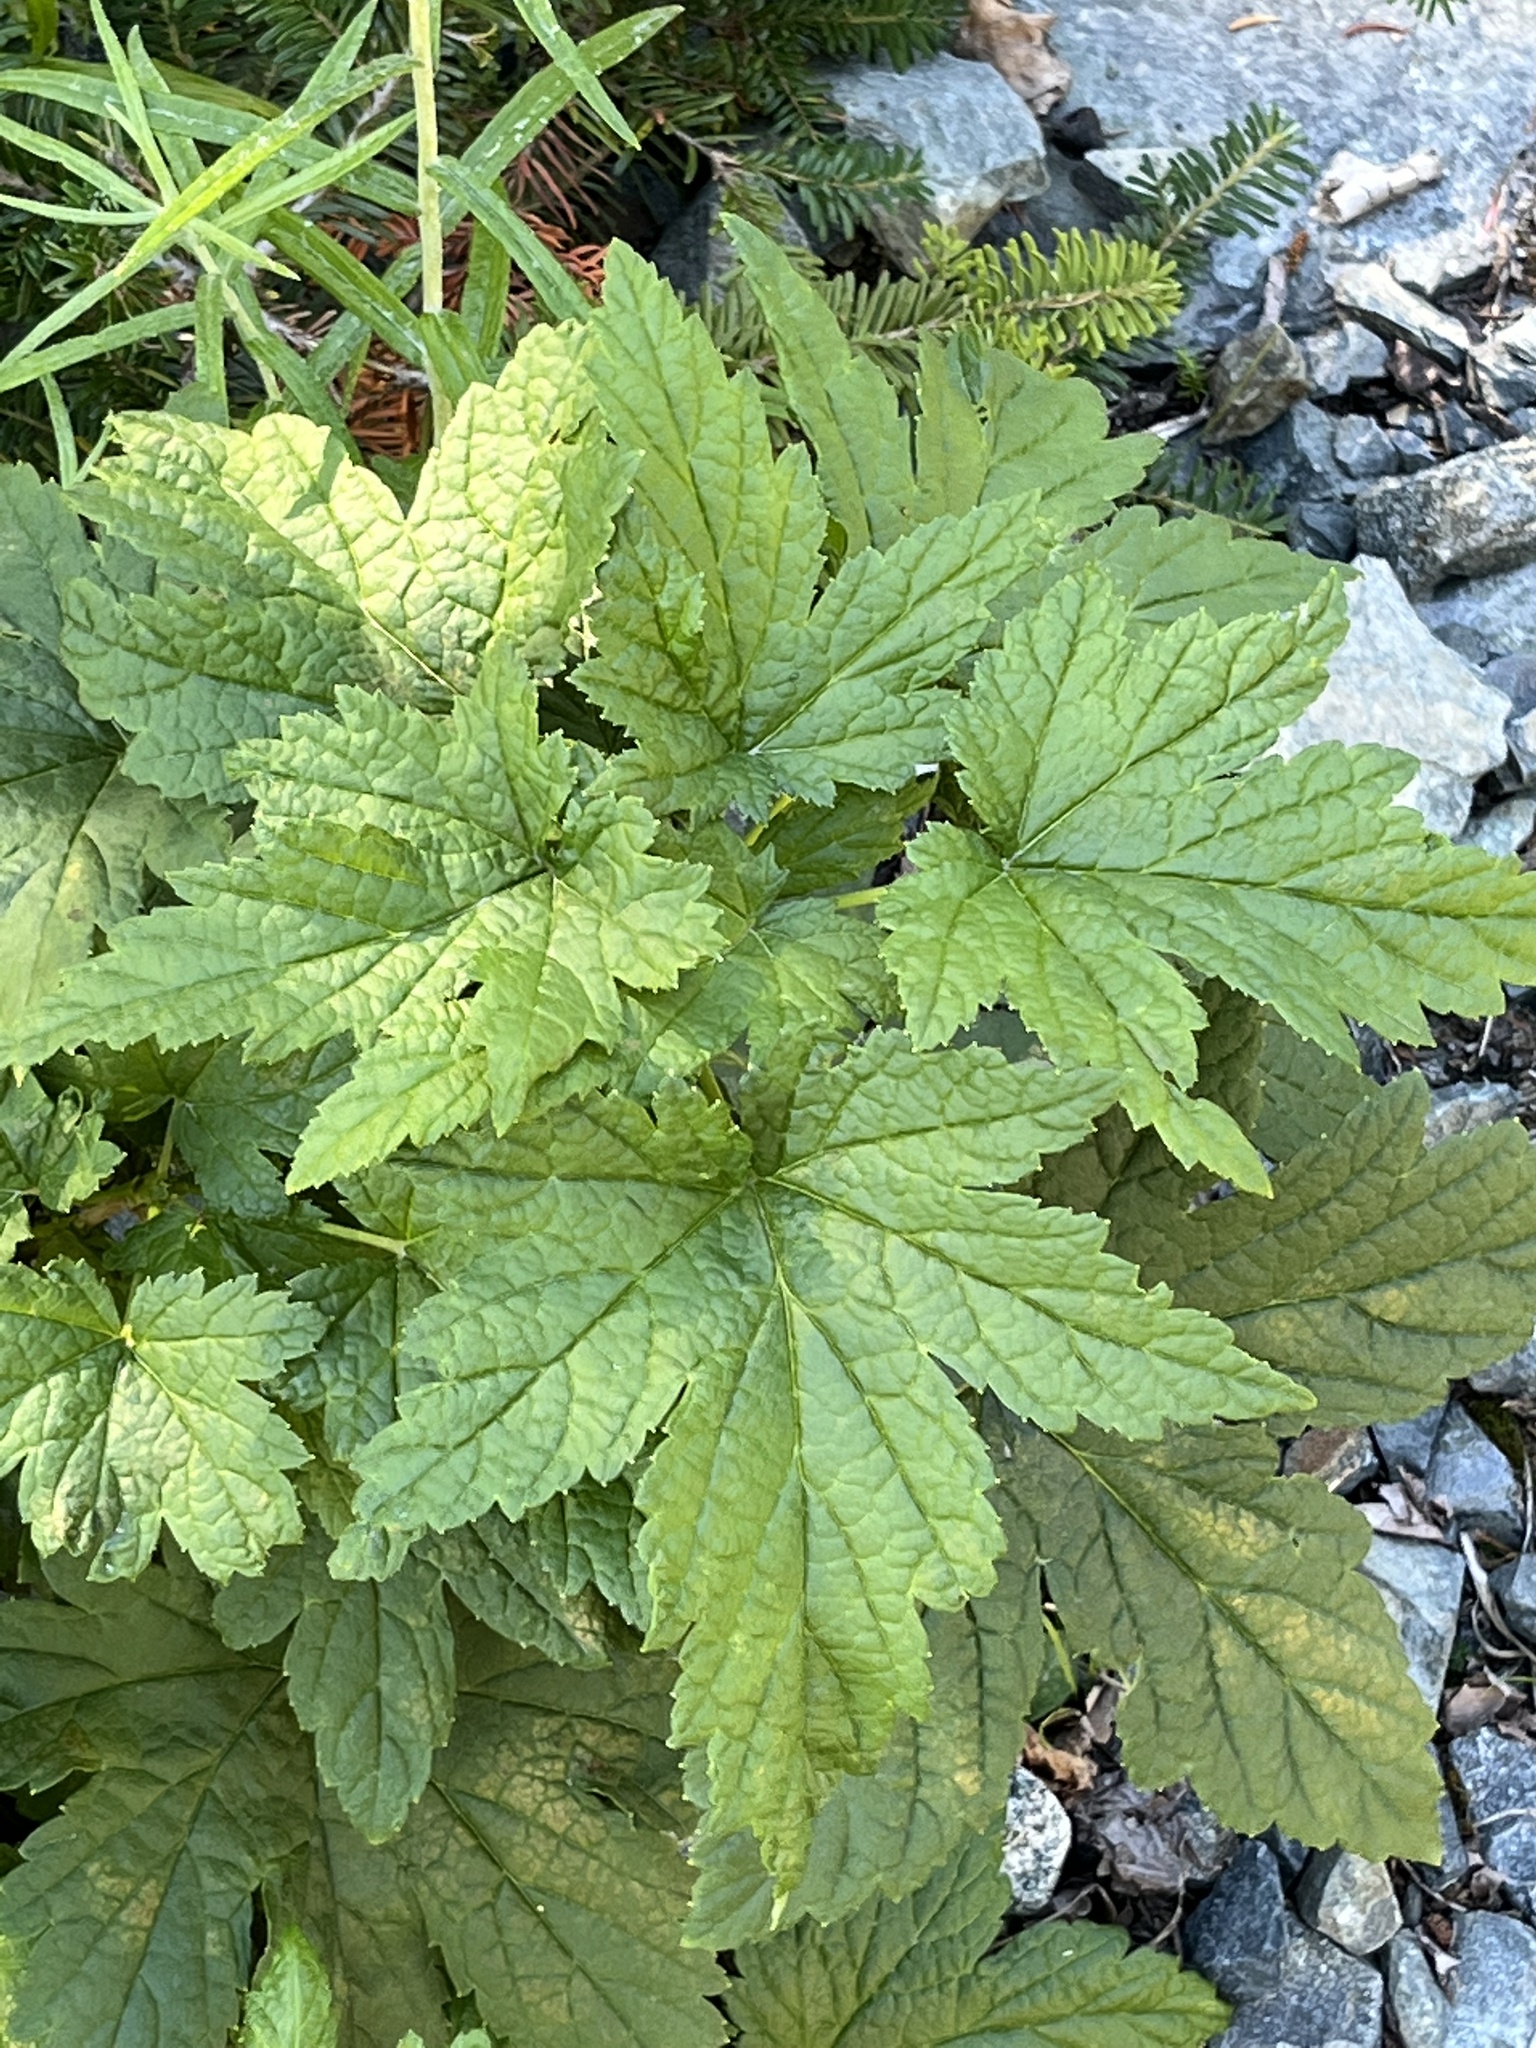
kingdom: Plantae
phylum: Tracheophyta
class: Magnoliopsida
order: Saxifragales
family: Grossulariaceae
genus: Ribes
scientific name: Ribes bracteosum
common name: California black currant
